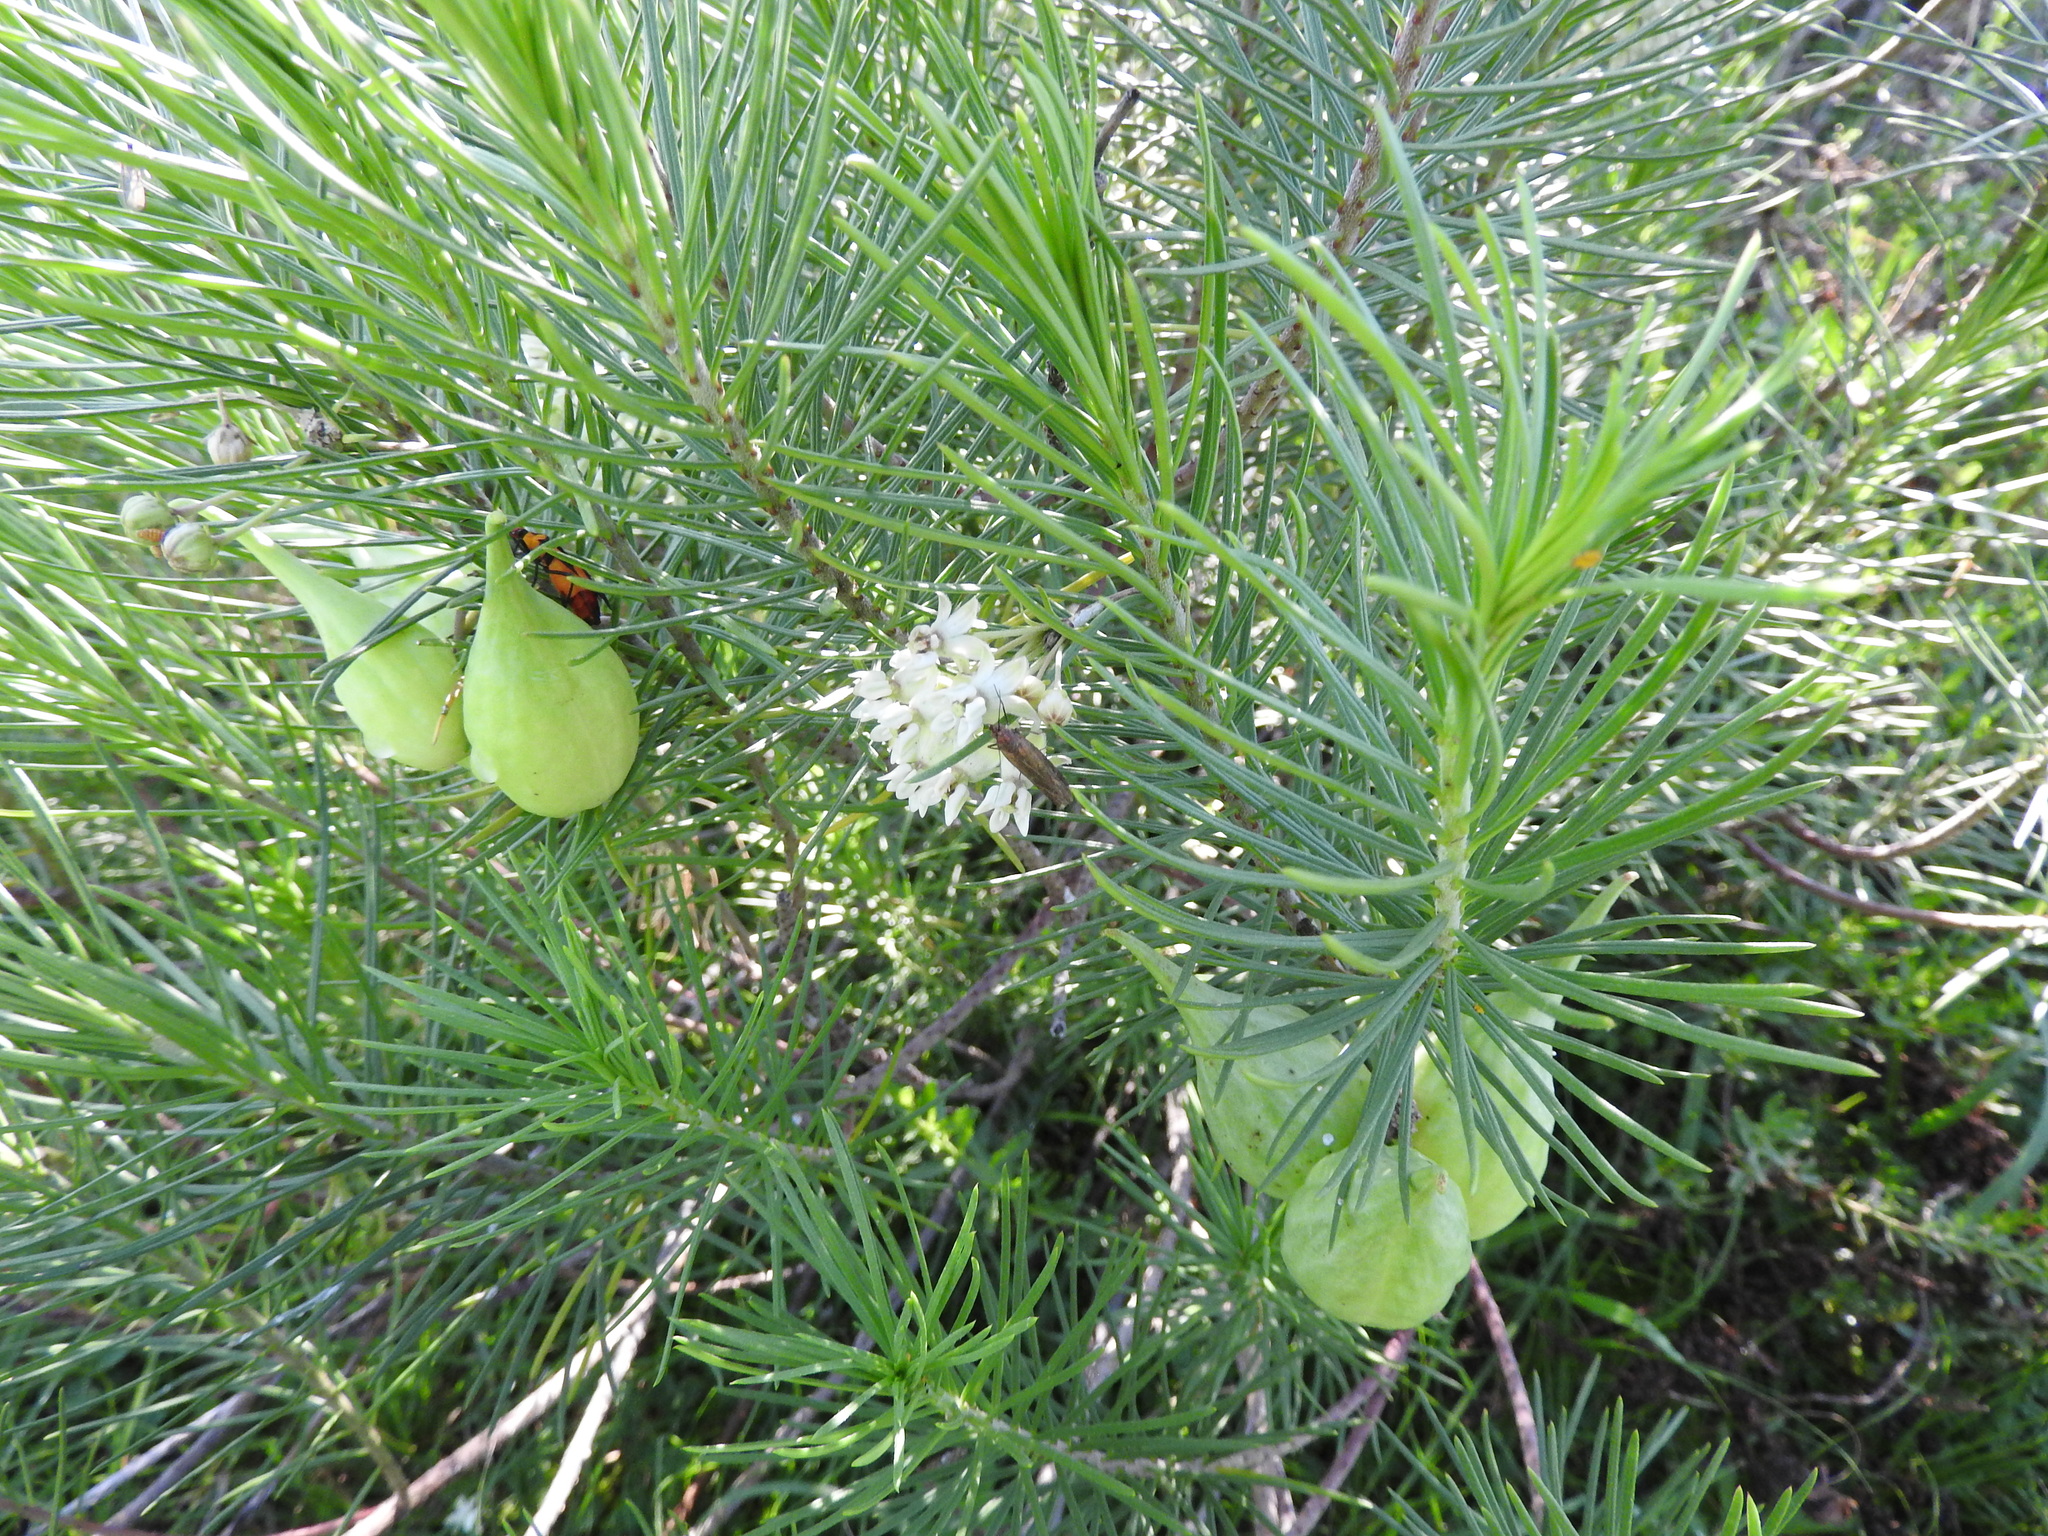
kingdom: Plantae
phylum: Tracheophyta
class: Magnoliopsida
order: Gentianales
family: Apocynaceae
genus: Asclepias
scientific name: Asclepias linaria
